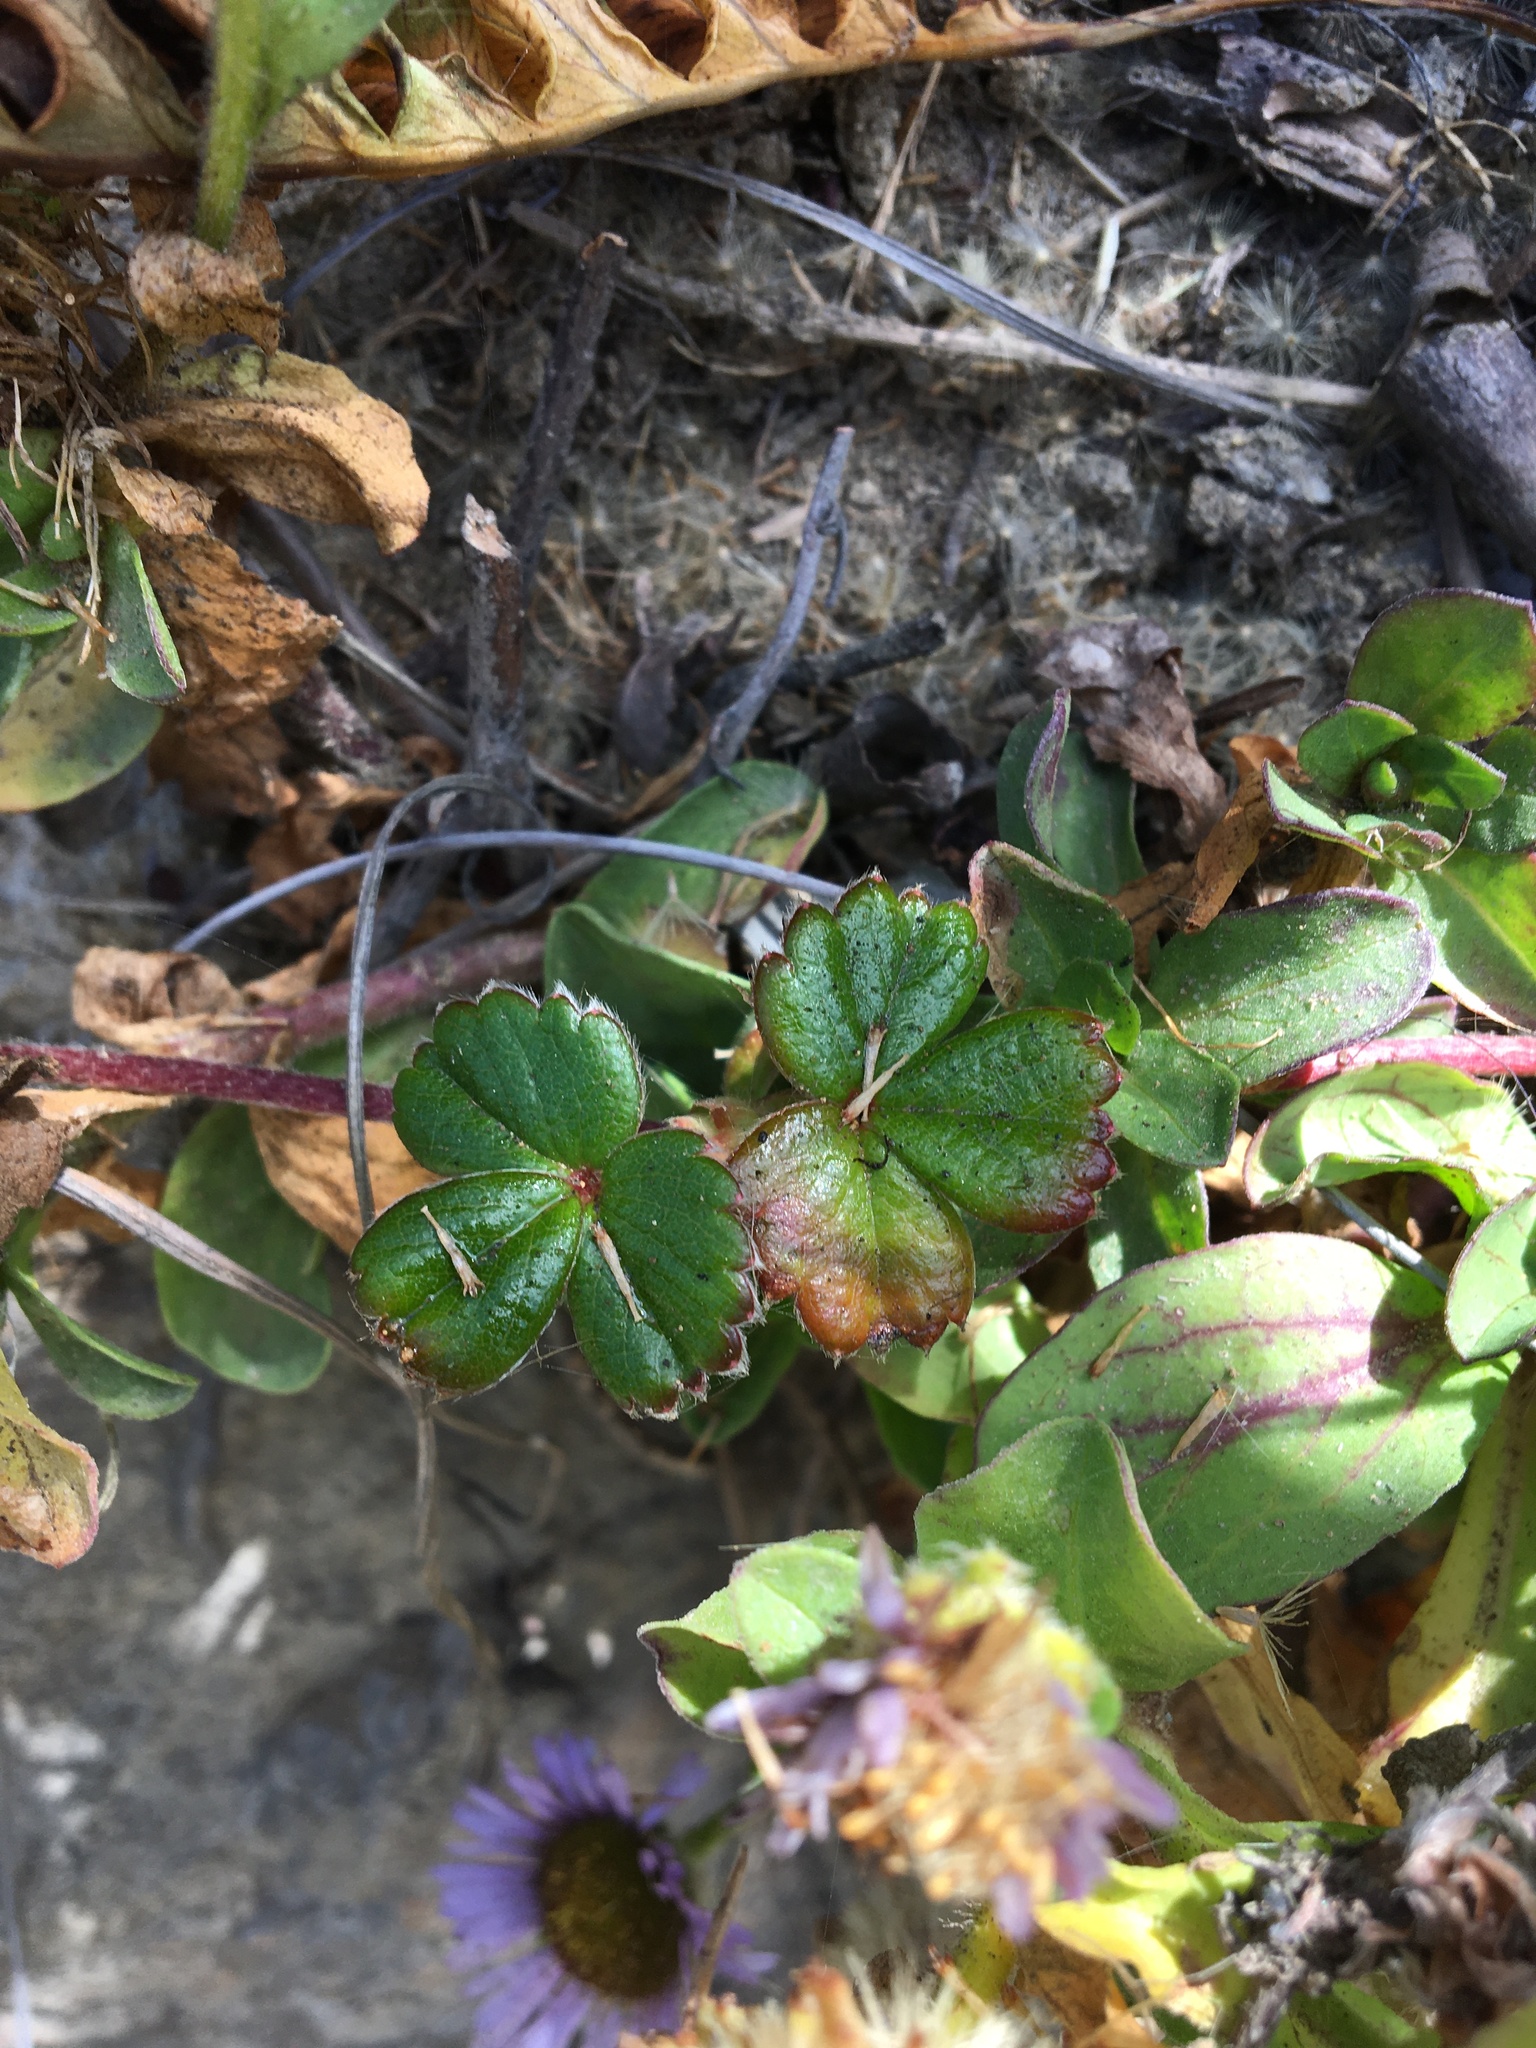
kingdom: Plantae
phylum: Tracheophyta
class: Magnoliopsida
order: Asterales
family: Asteraceae
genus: Erigeron
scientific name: Erigeron glaucus
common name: Seaside daisy
